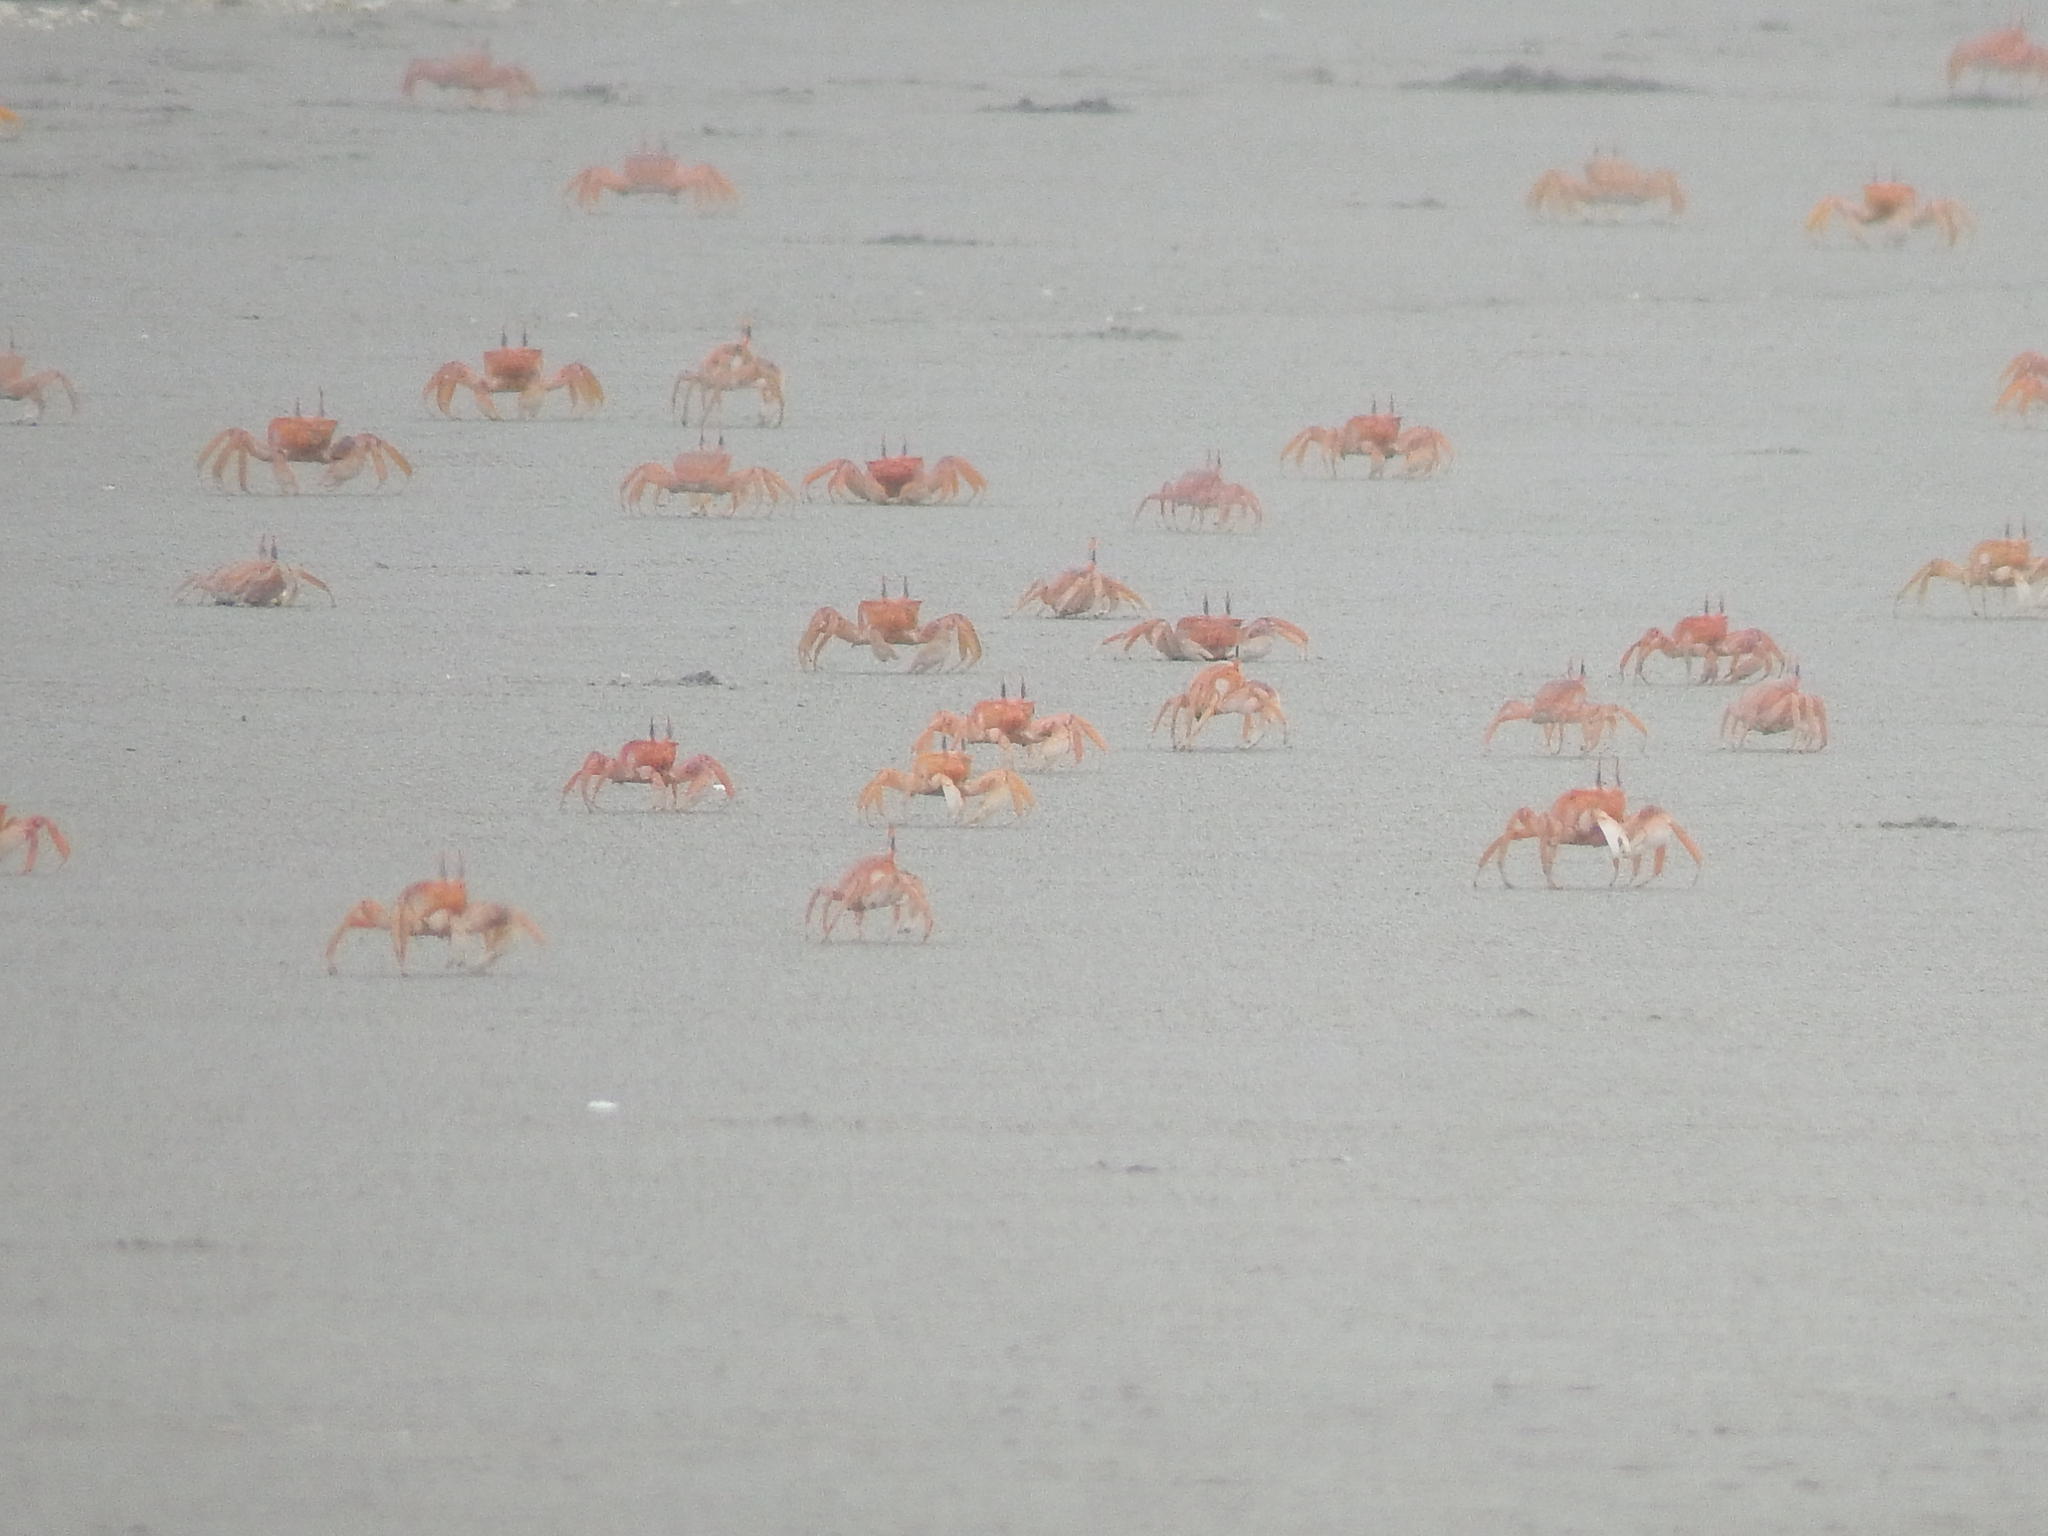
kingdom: Animalia
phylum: Arthropoda
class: Malacostraca
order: Decapoda
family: Ocypodidae
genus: Ocypode
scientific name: Ocypode gaudichaudii
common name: Pacific ghost crab
